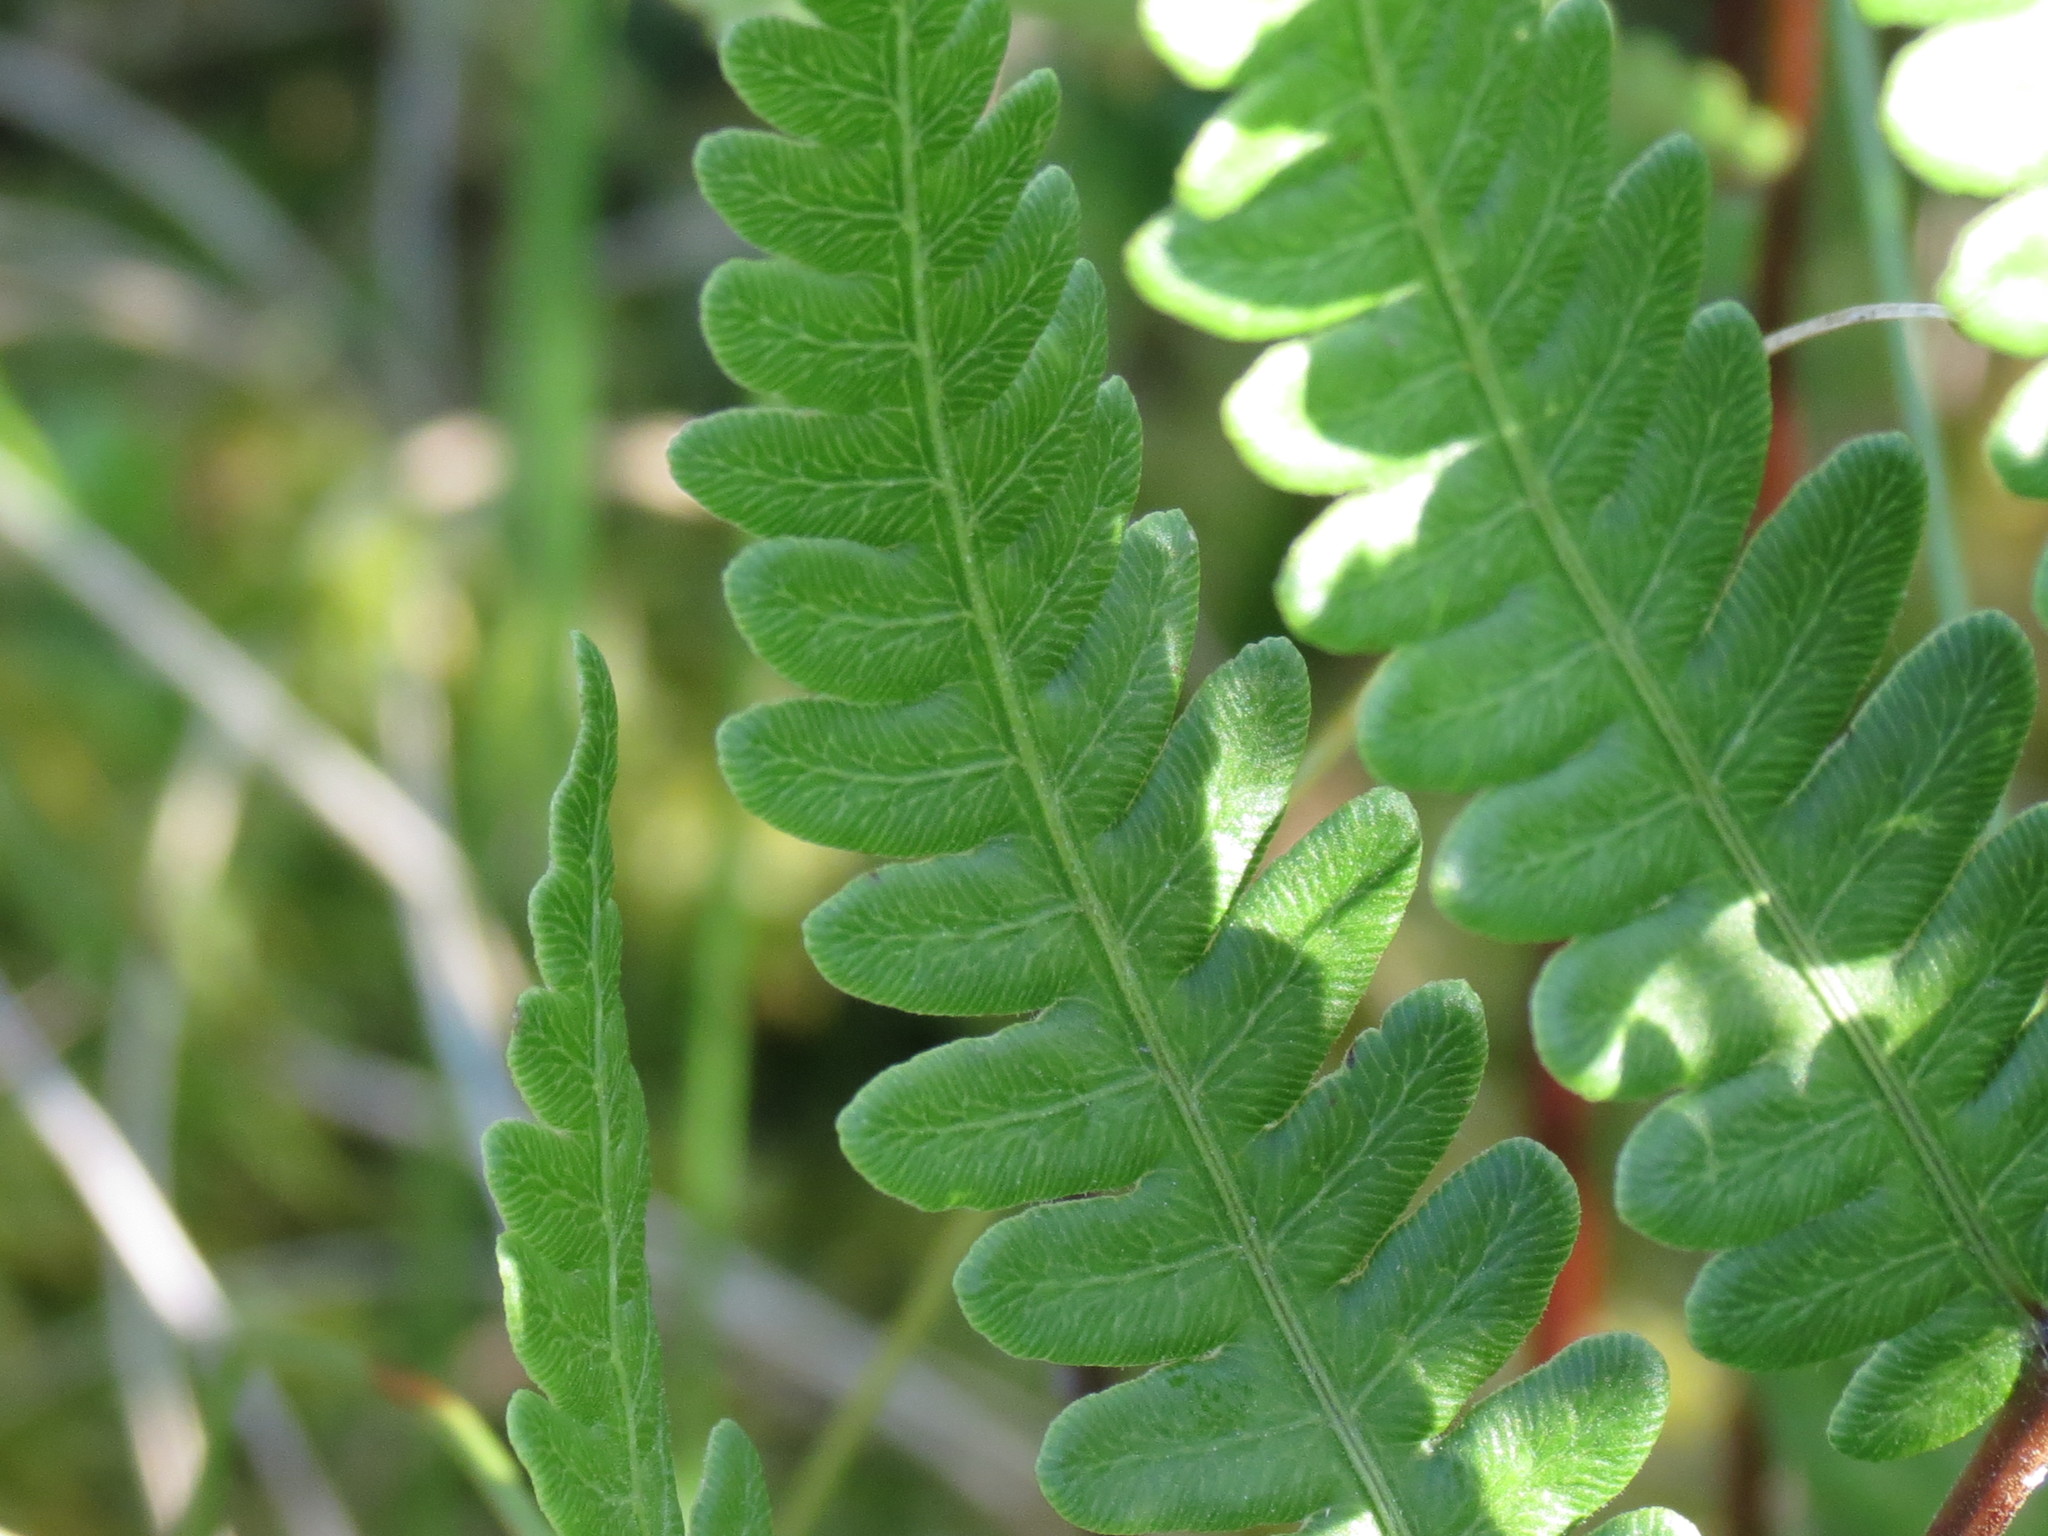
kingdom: Plantae
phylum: Tracheophyta
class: Polypodiopsida
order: Polypodiales
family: Blechnaceae
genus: Anchistea
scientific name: Anchistea virginica
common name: Virginia chain fern
